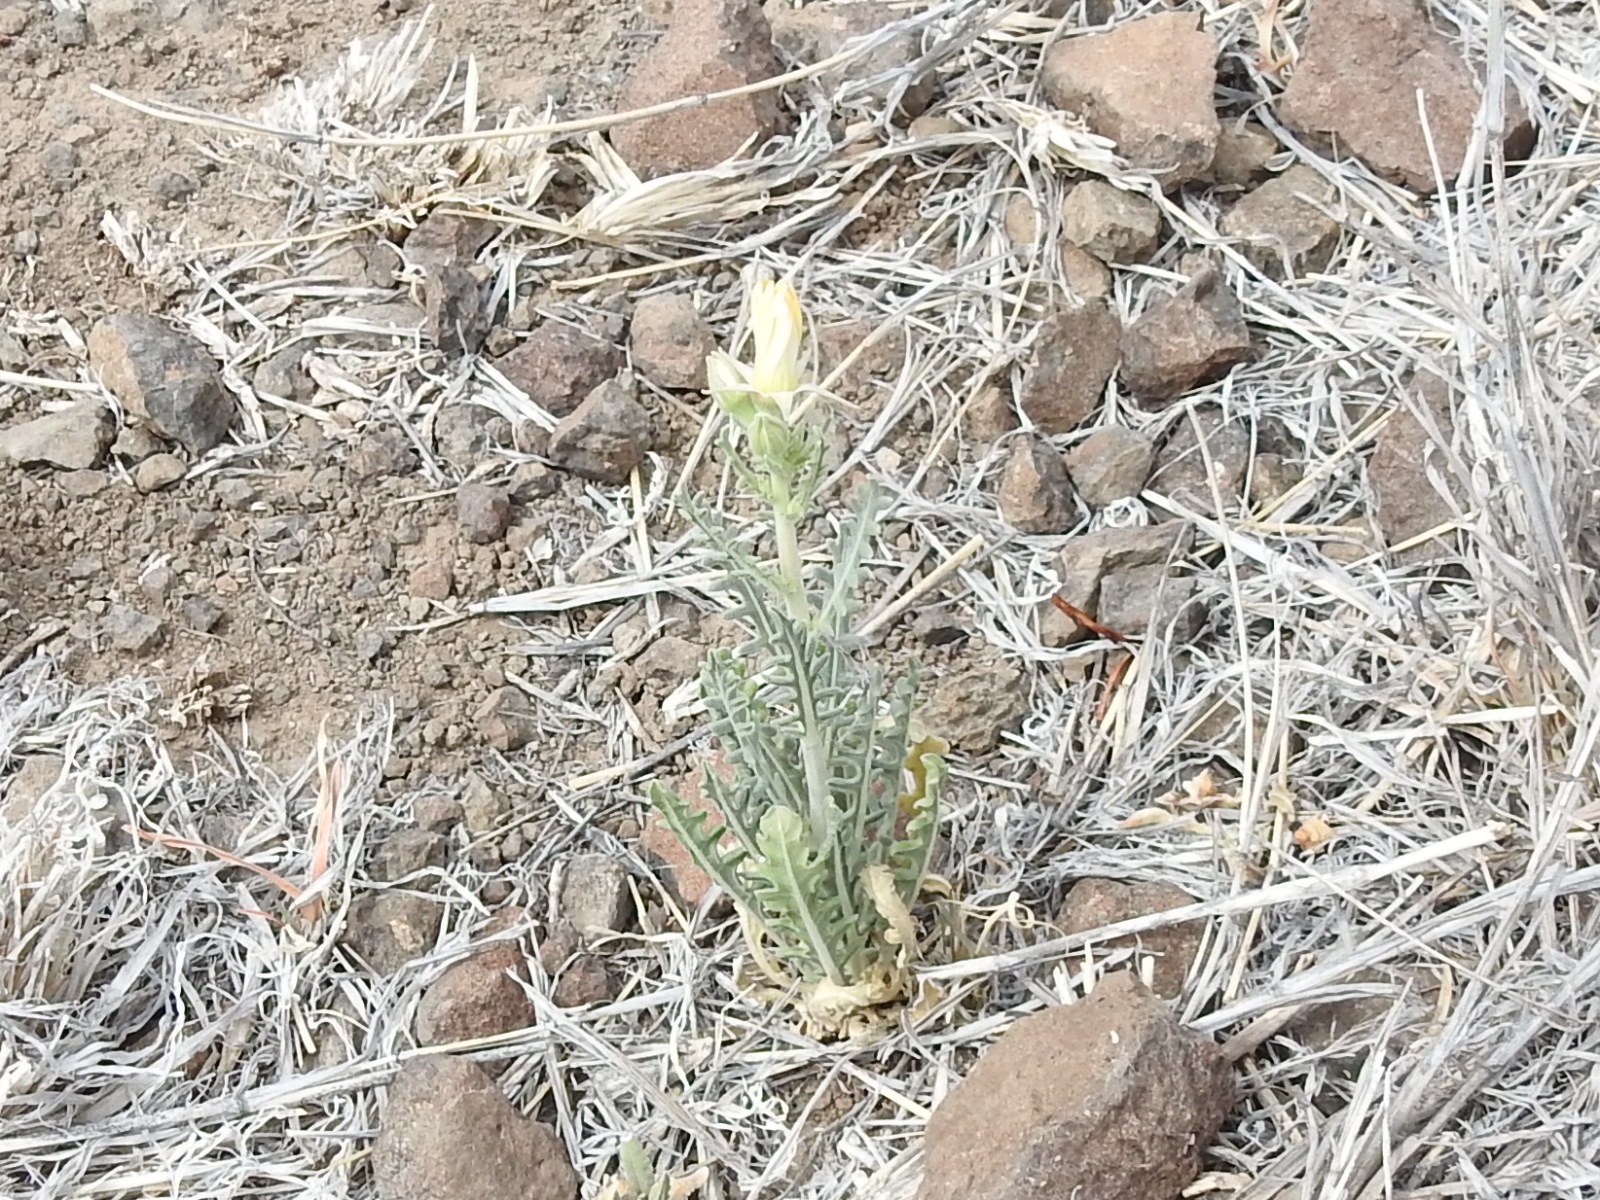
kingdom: Plantae
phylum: Tracheophyta
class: Magnoliopsida
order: Cornales
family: Loasaceae
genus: Mentzelia
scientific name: Mentzelia longiloba
